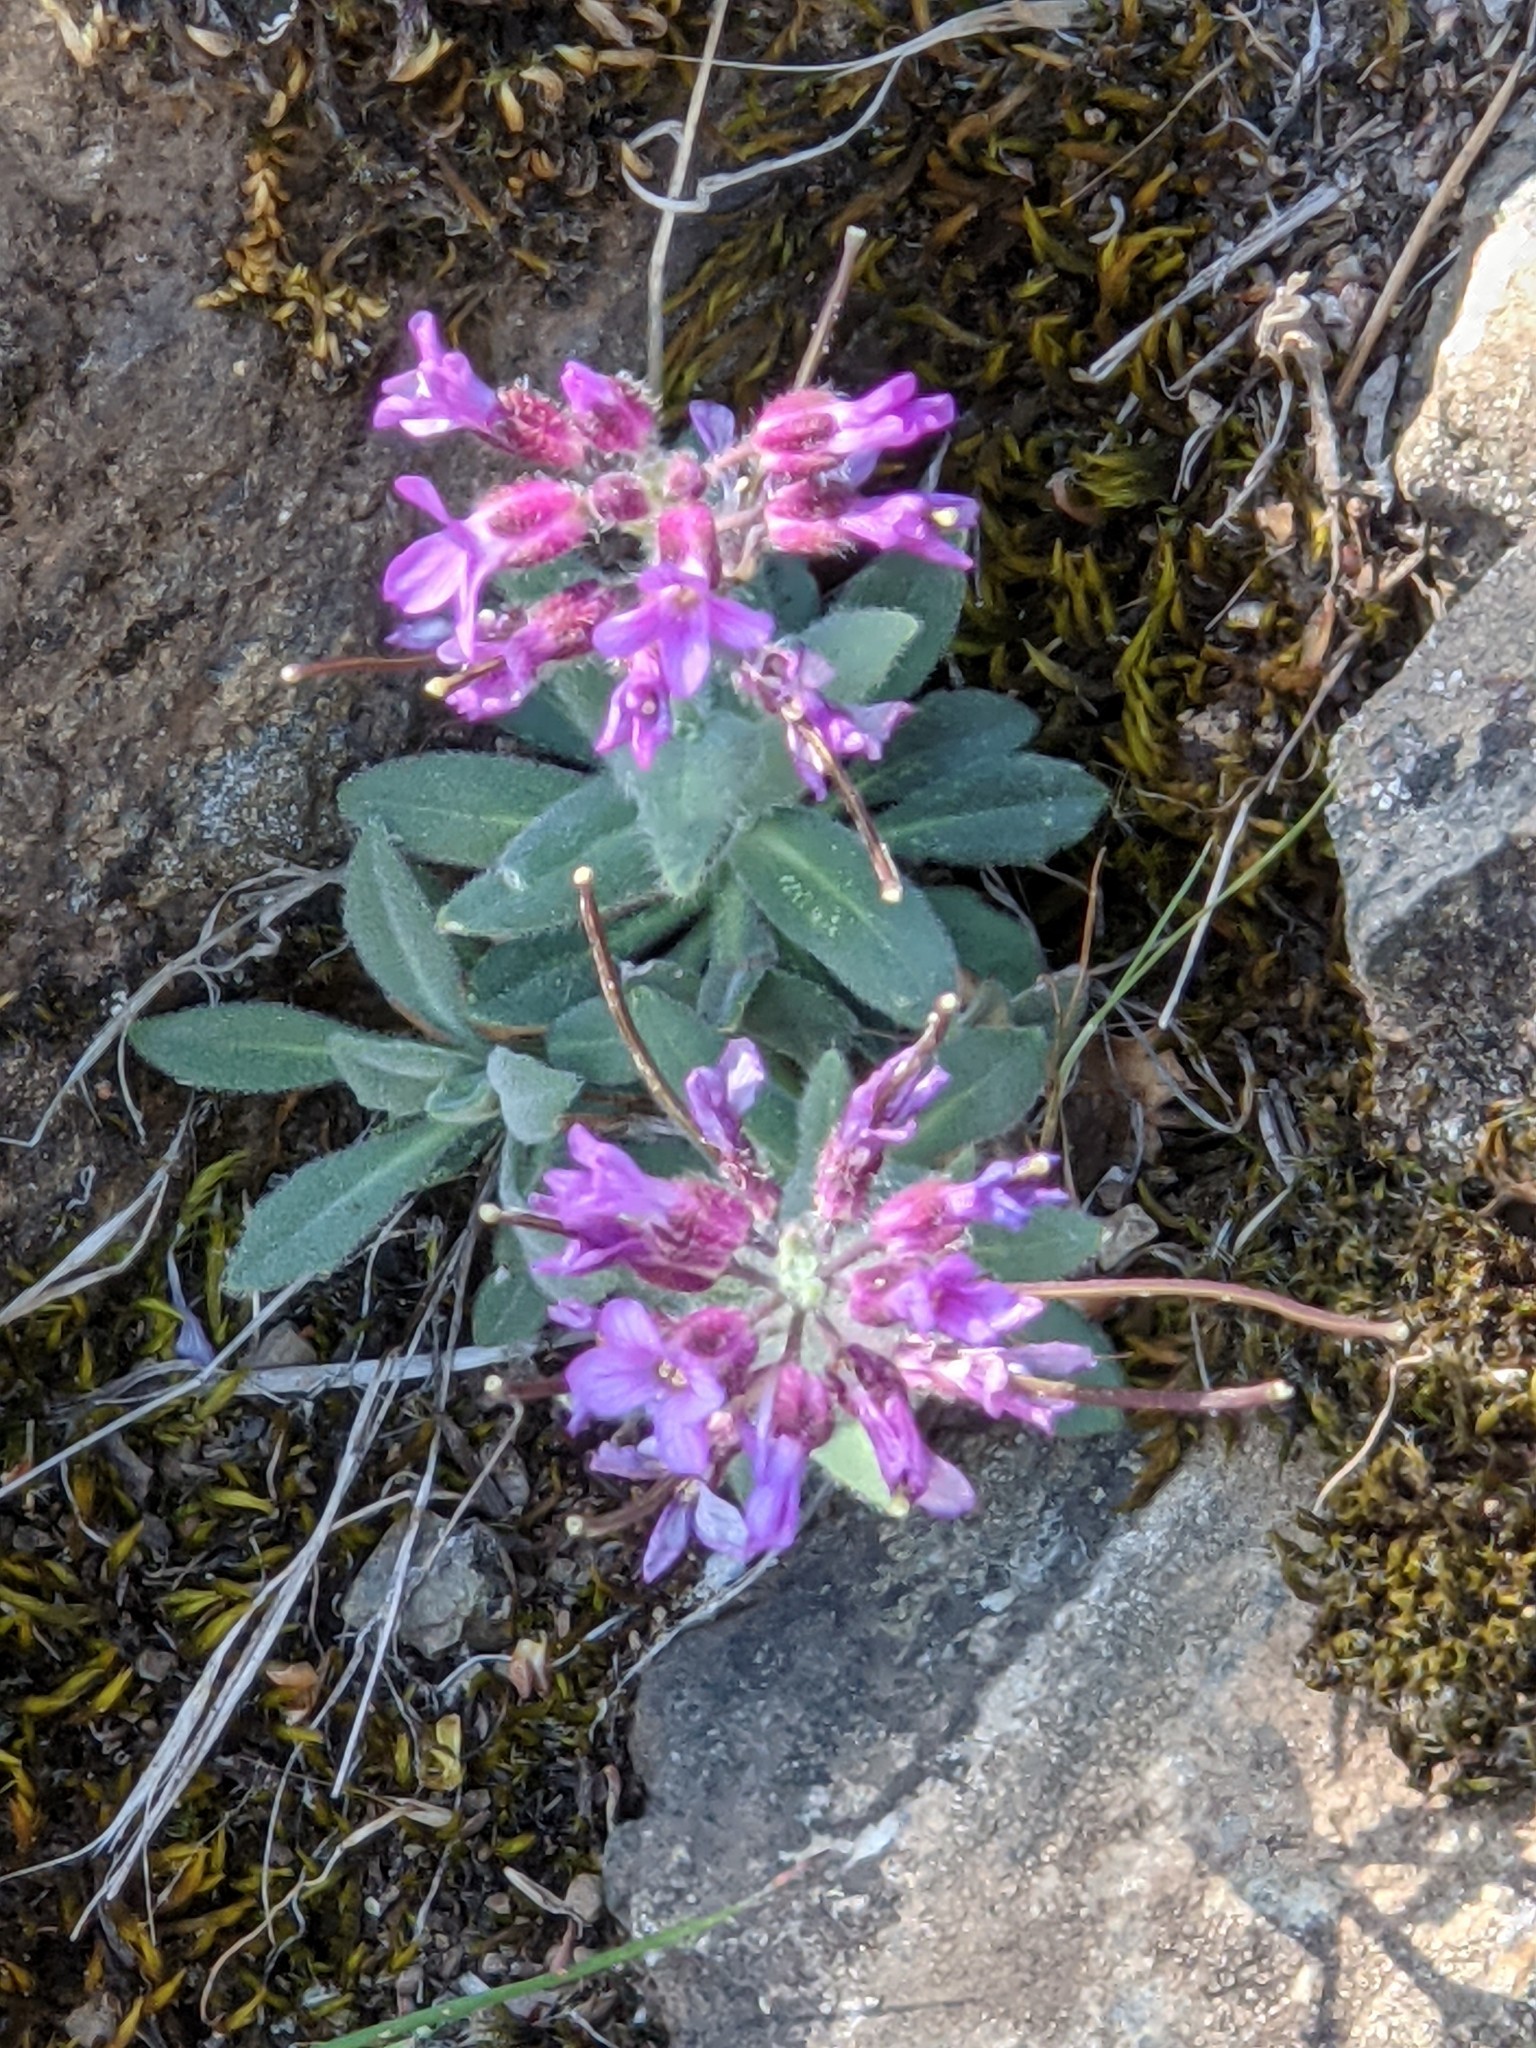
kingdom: Plantae
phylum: Tracheophyta
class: Magnoliopsida
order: Brassicales
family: Brassicaceae
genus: Boechera
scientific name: Boechera breweri
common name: Brewer's rockcress
